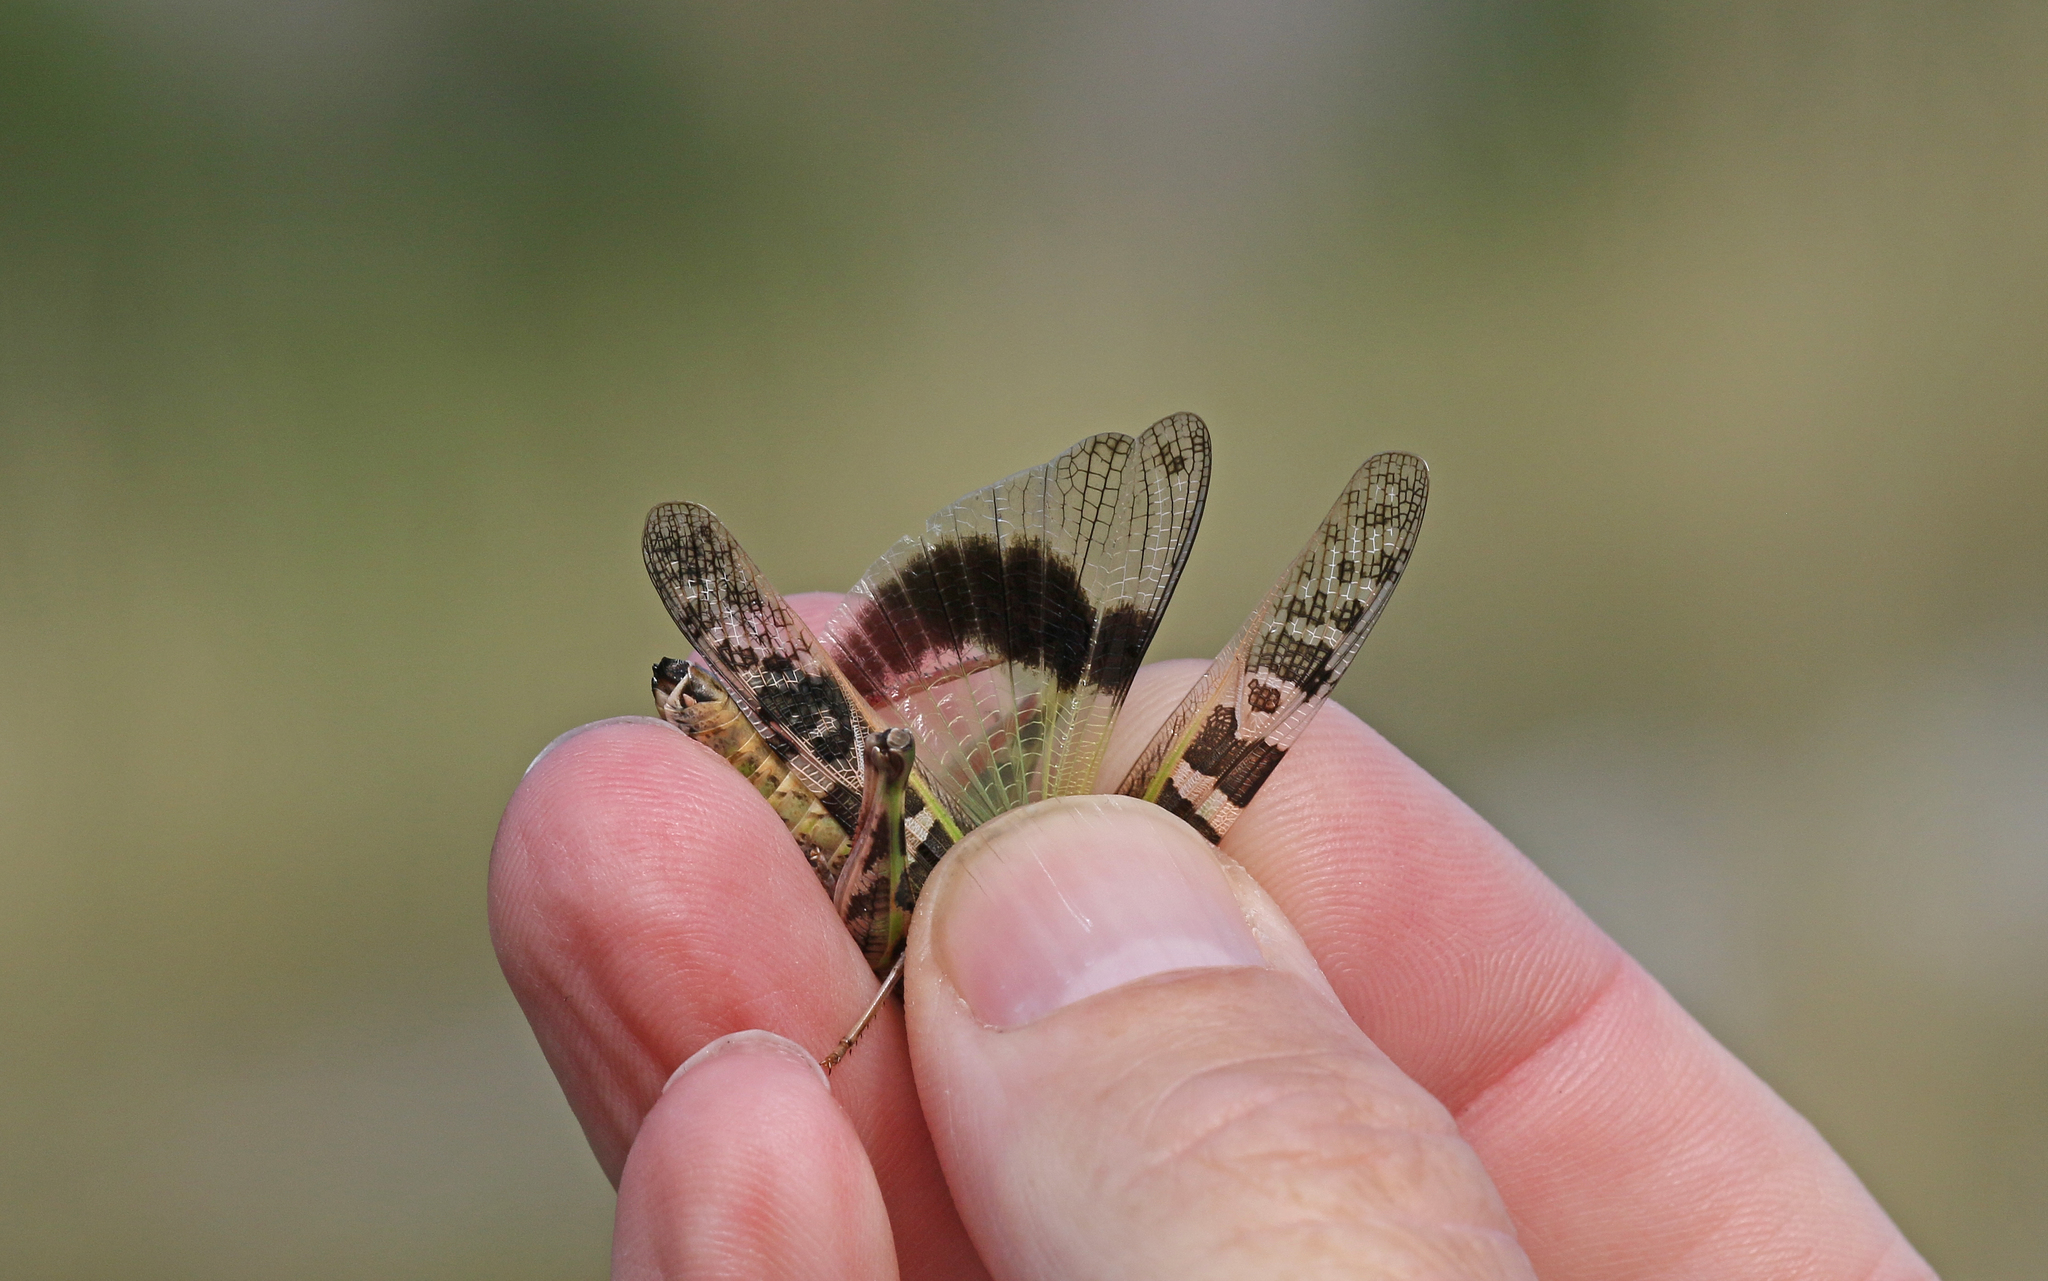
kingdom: Animalia
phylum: Arthropoda
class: Insecta
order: Orthoptera
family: Acrididae
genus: Oedaleus
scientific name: Oedaleus decorus
